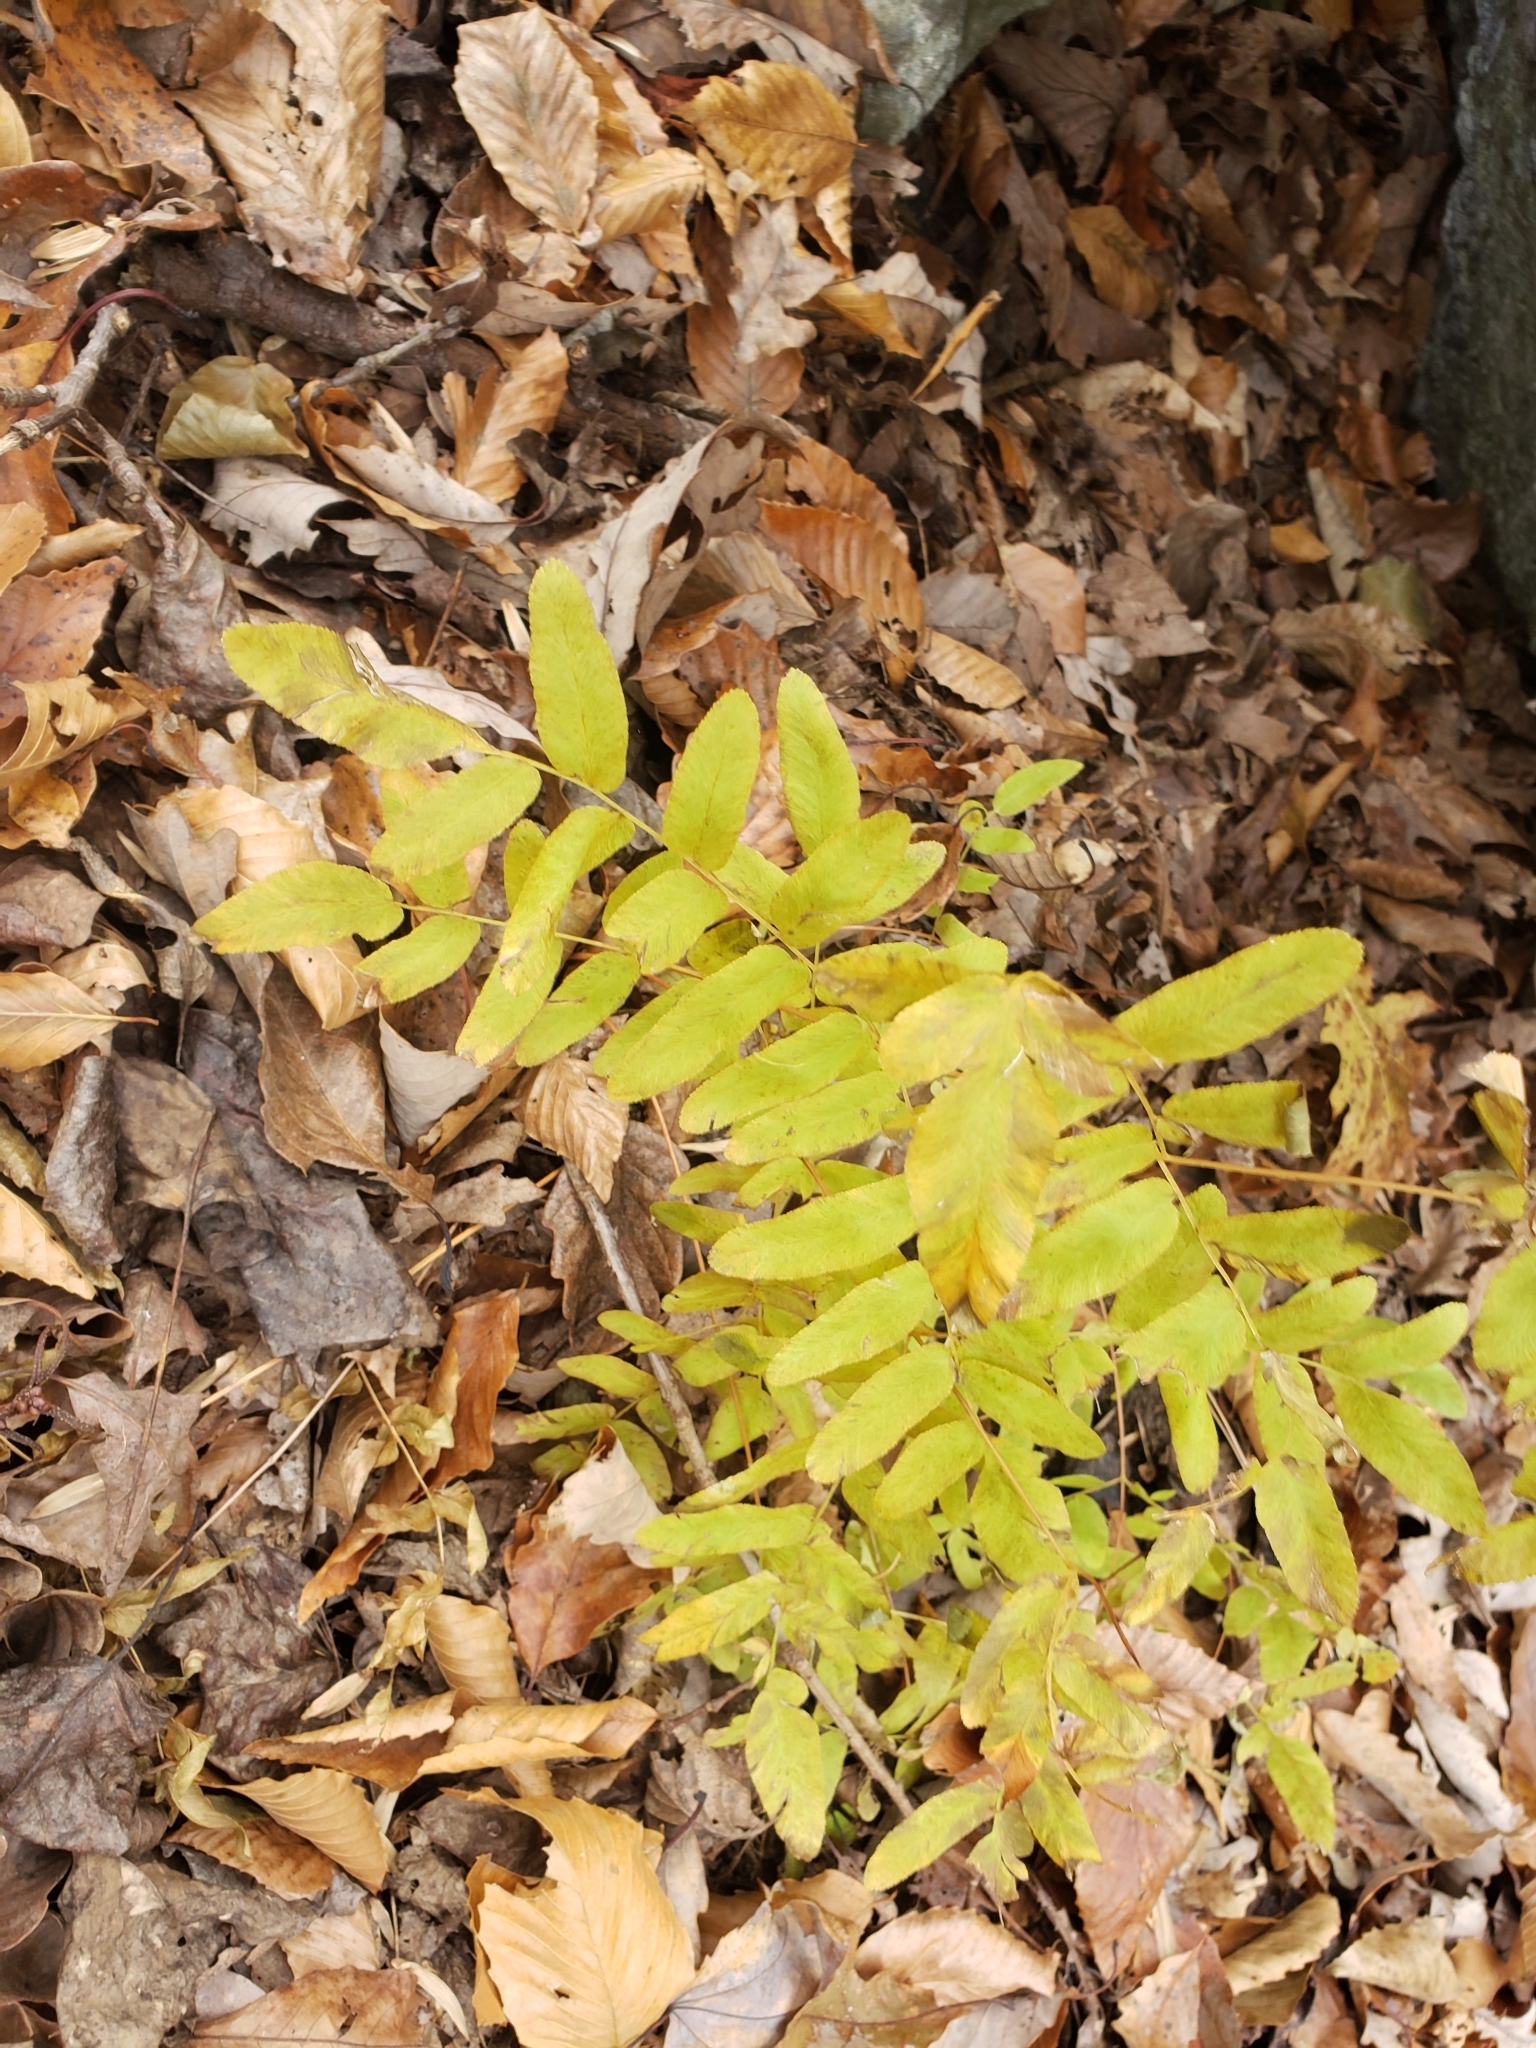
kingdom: Plantae
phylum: Tracheophyta
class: Polypodiopsida
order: Osmundales
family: Osmundaceae
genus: Osmunda
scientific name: Osmunda spectabilis
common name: American royal fern
